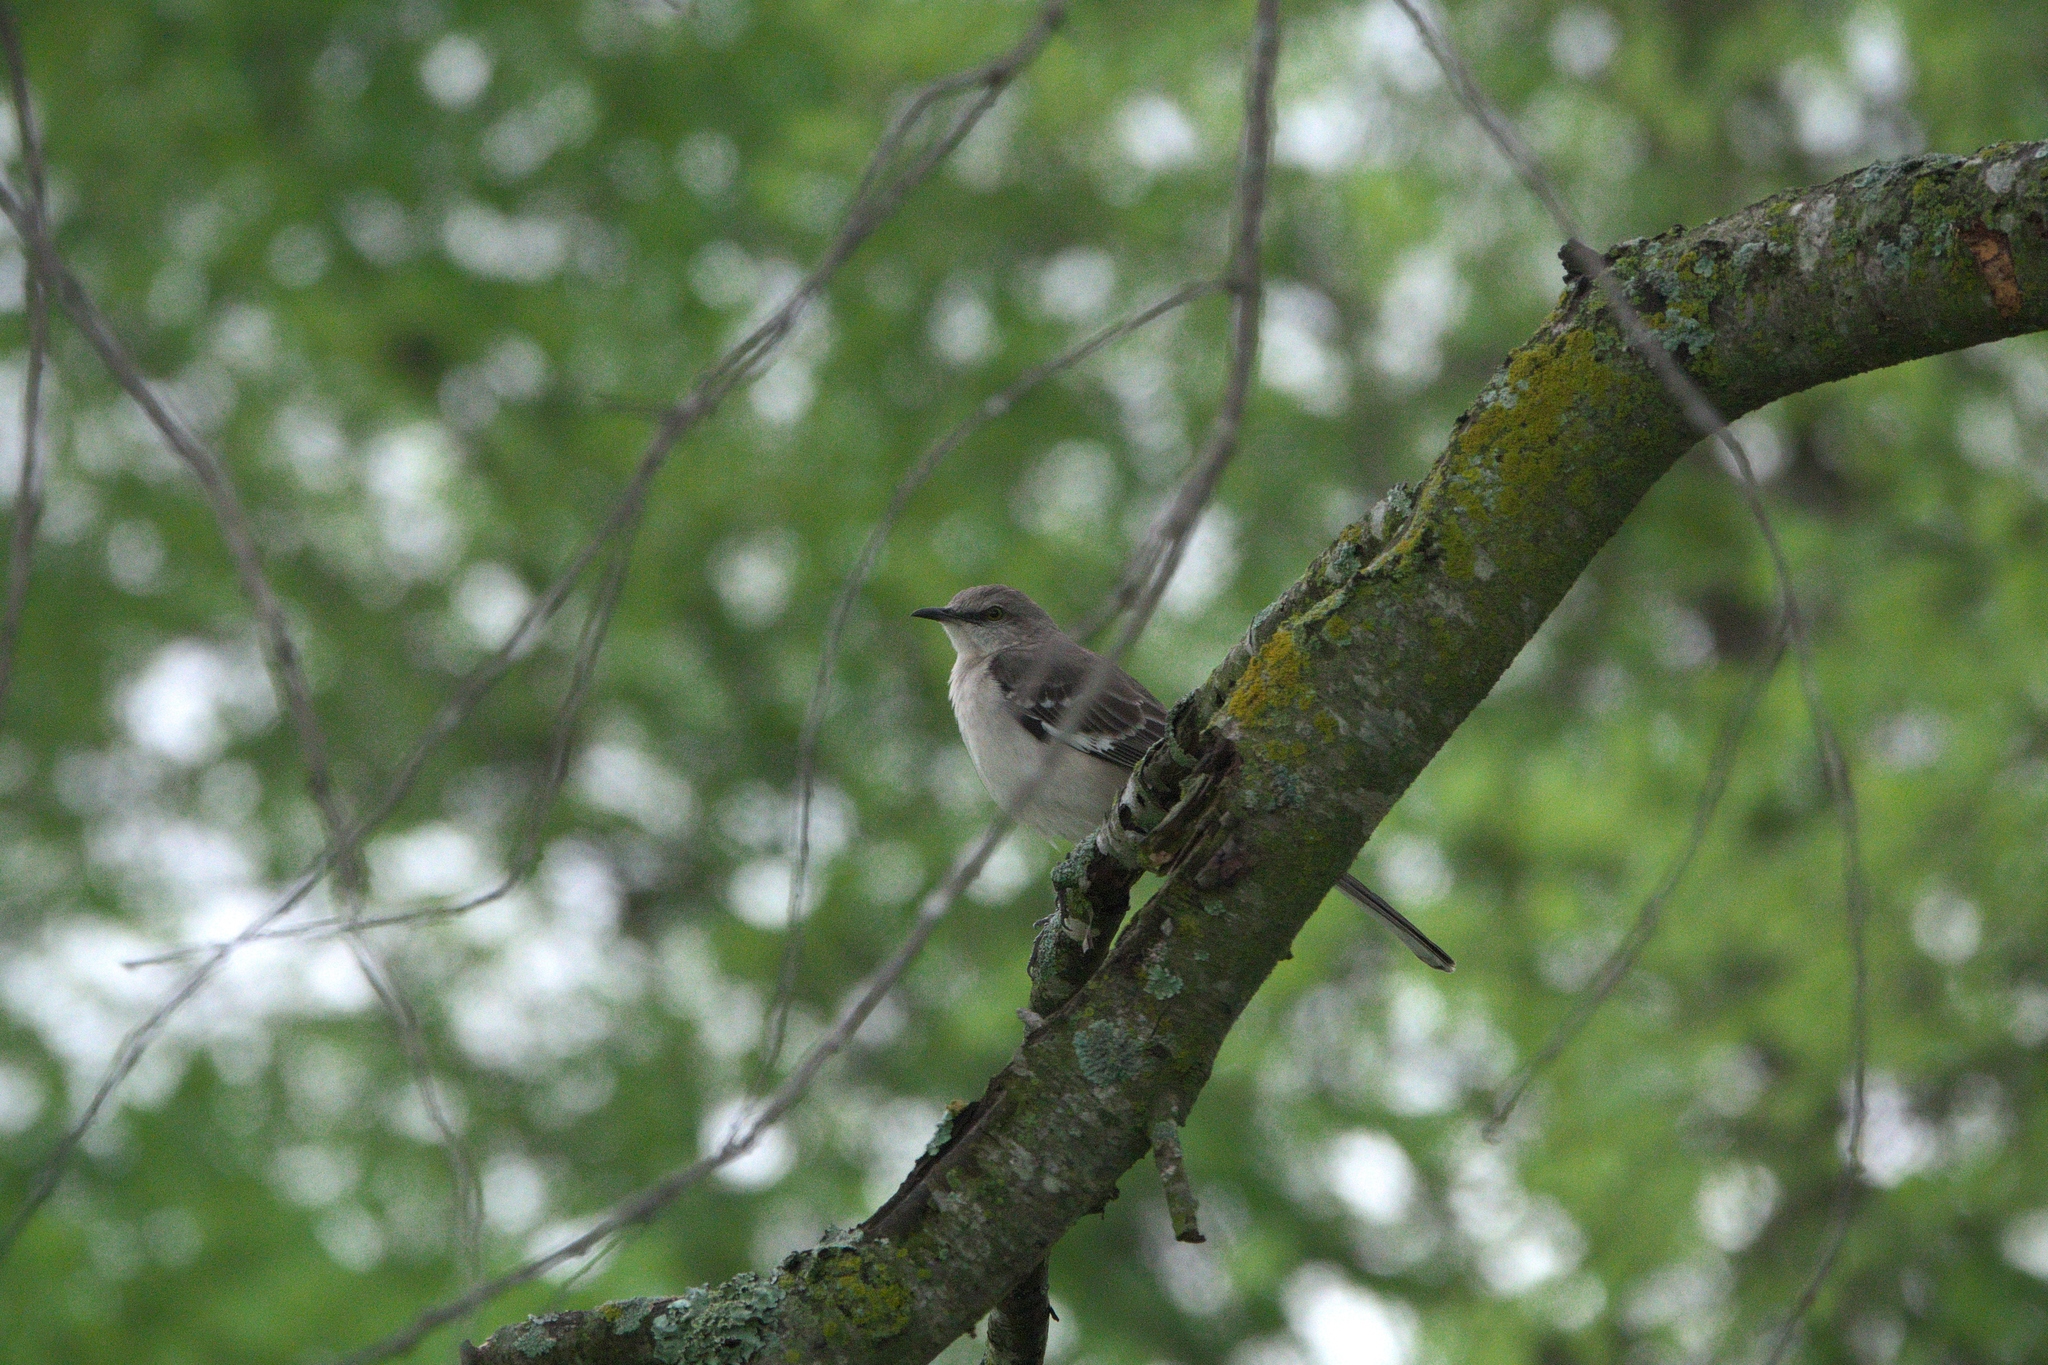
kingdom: Animalia
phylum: Chordata
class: Aves
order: Passeriformes
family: Mimidae
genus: Mimus
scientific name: Mimus polyglottos
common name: Northern mockingbird
